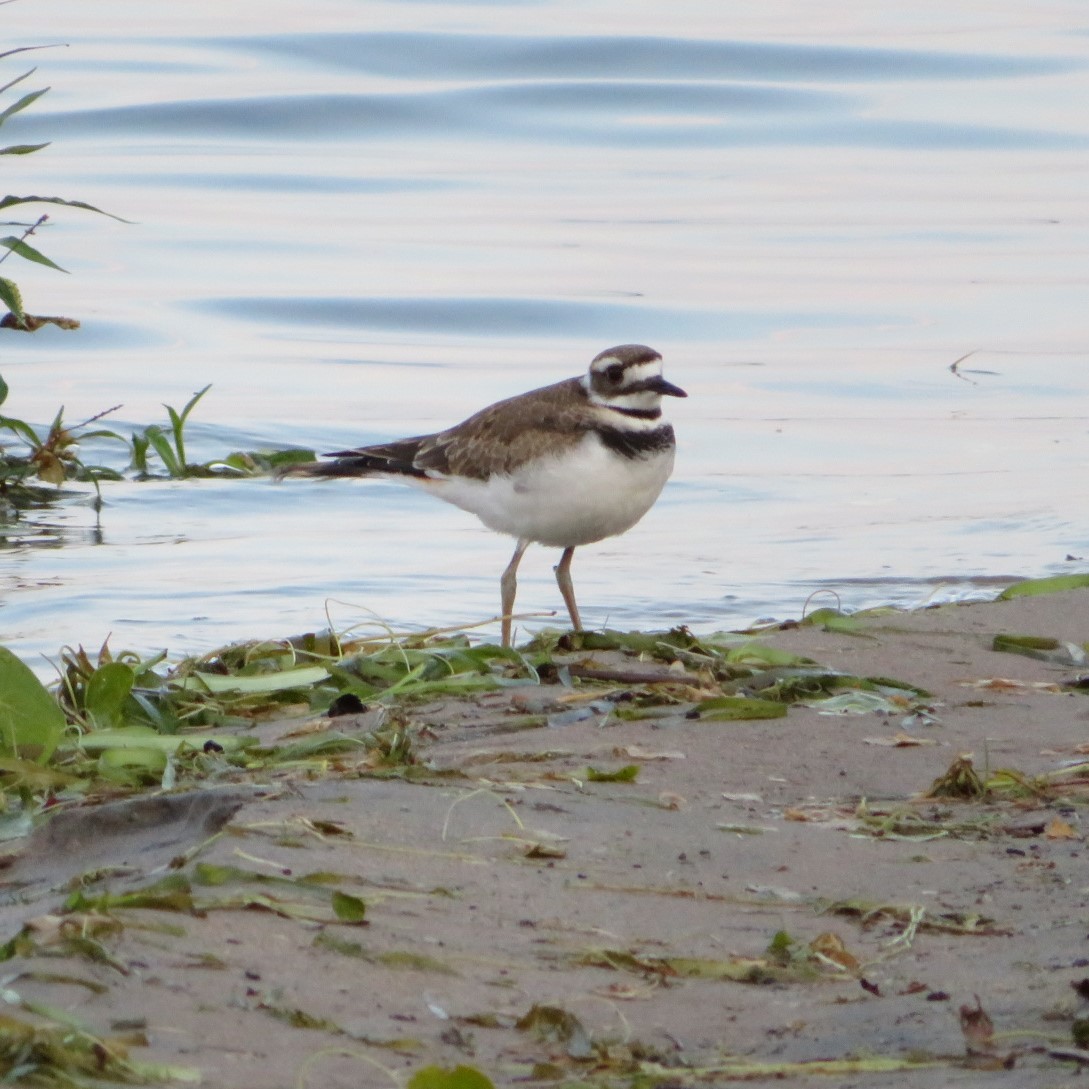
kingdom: Animalia
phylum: Chordata
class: Aves
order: Charadriiformes
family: Charadriidae
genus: Charadrius
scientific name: Charadrius vociferus
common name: Killdeer
